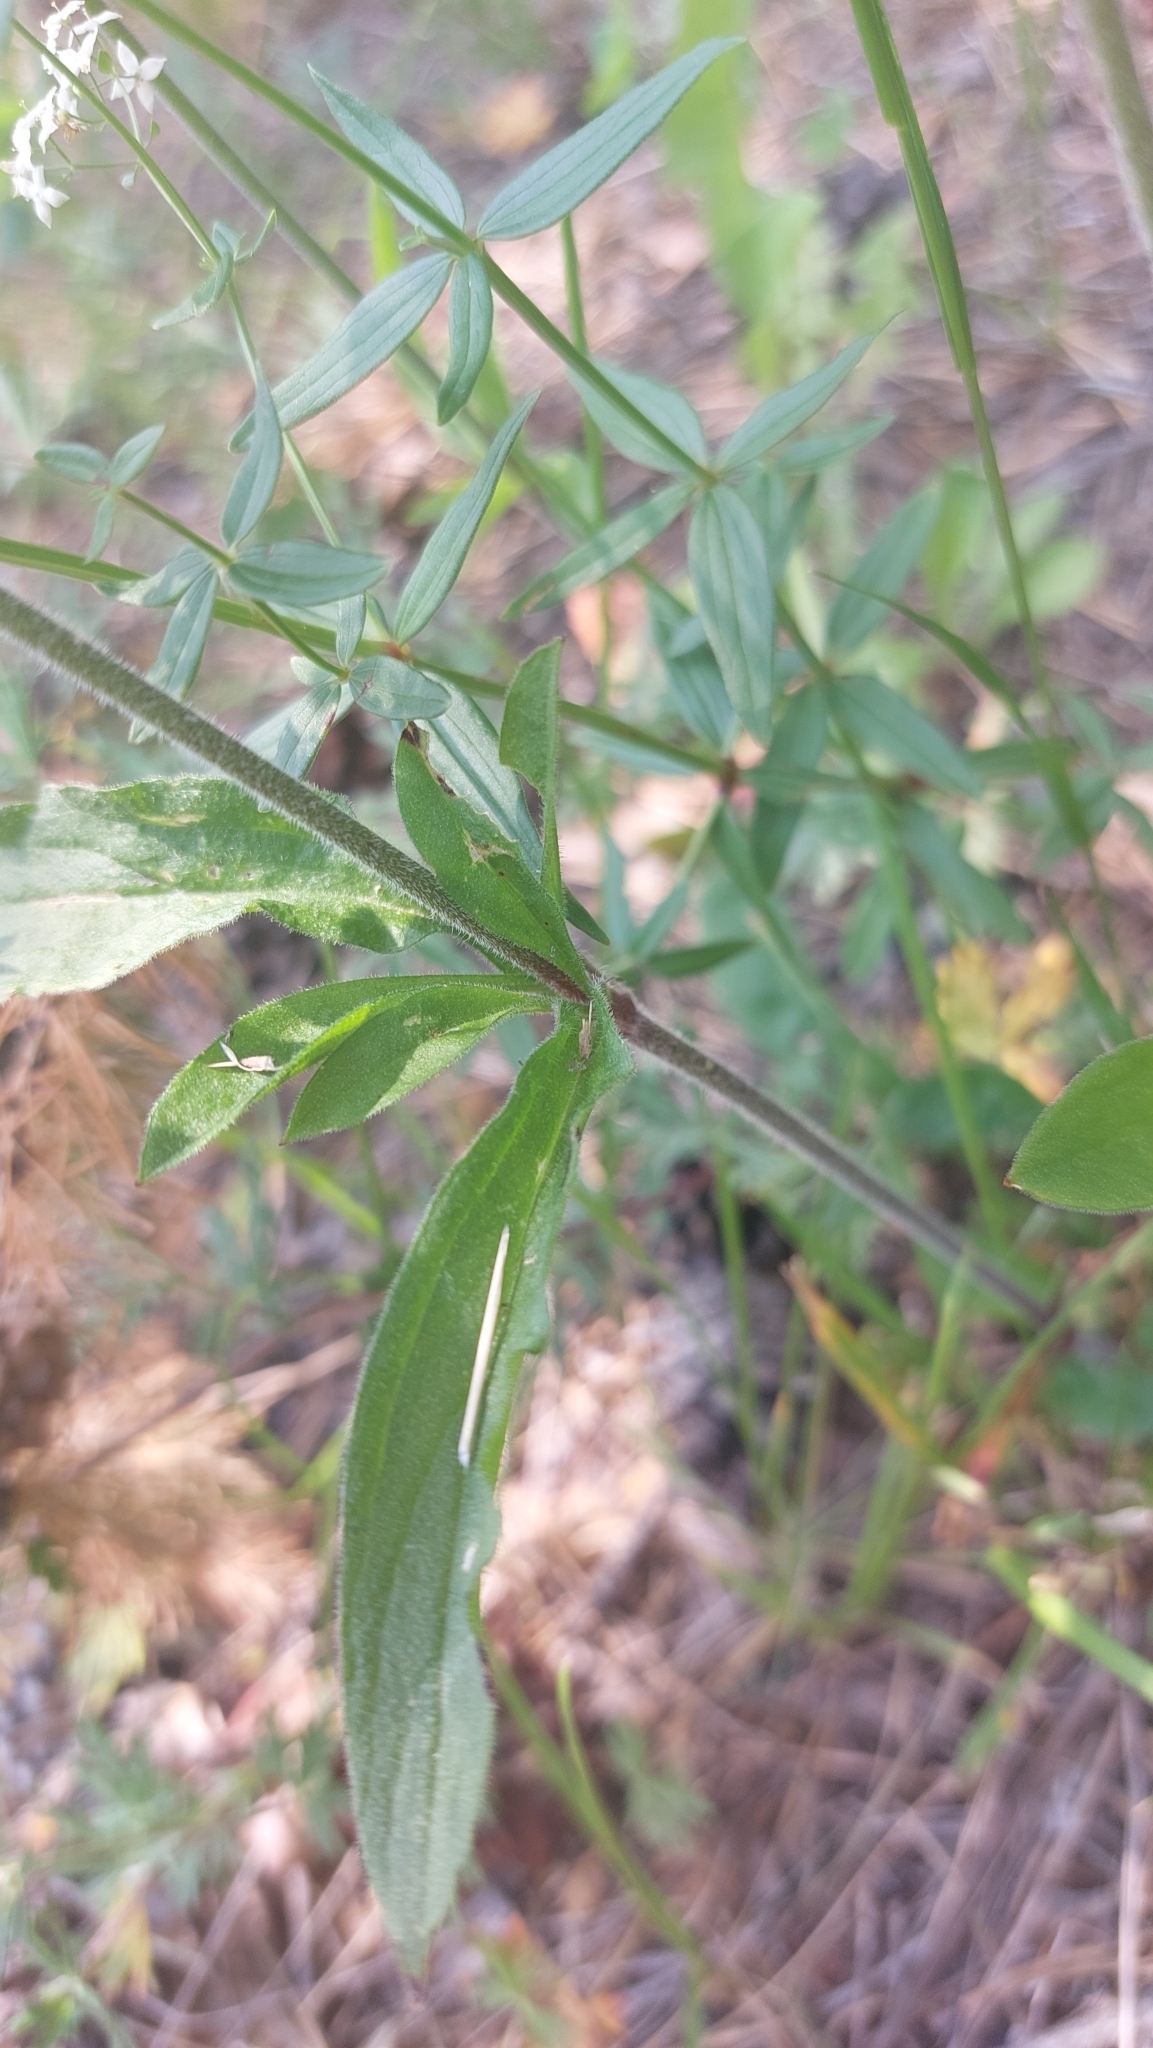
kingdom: Plantae
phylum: Tracheophyta
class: Magnoliopsida
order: Caryophyllales
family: Caryophyllaceae
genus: Silene
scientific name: Silene nutans
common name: Nottingham catchfly
